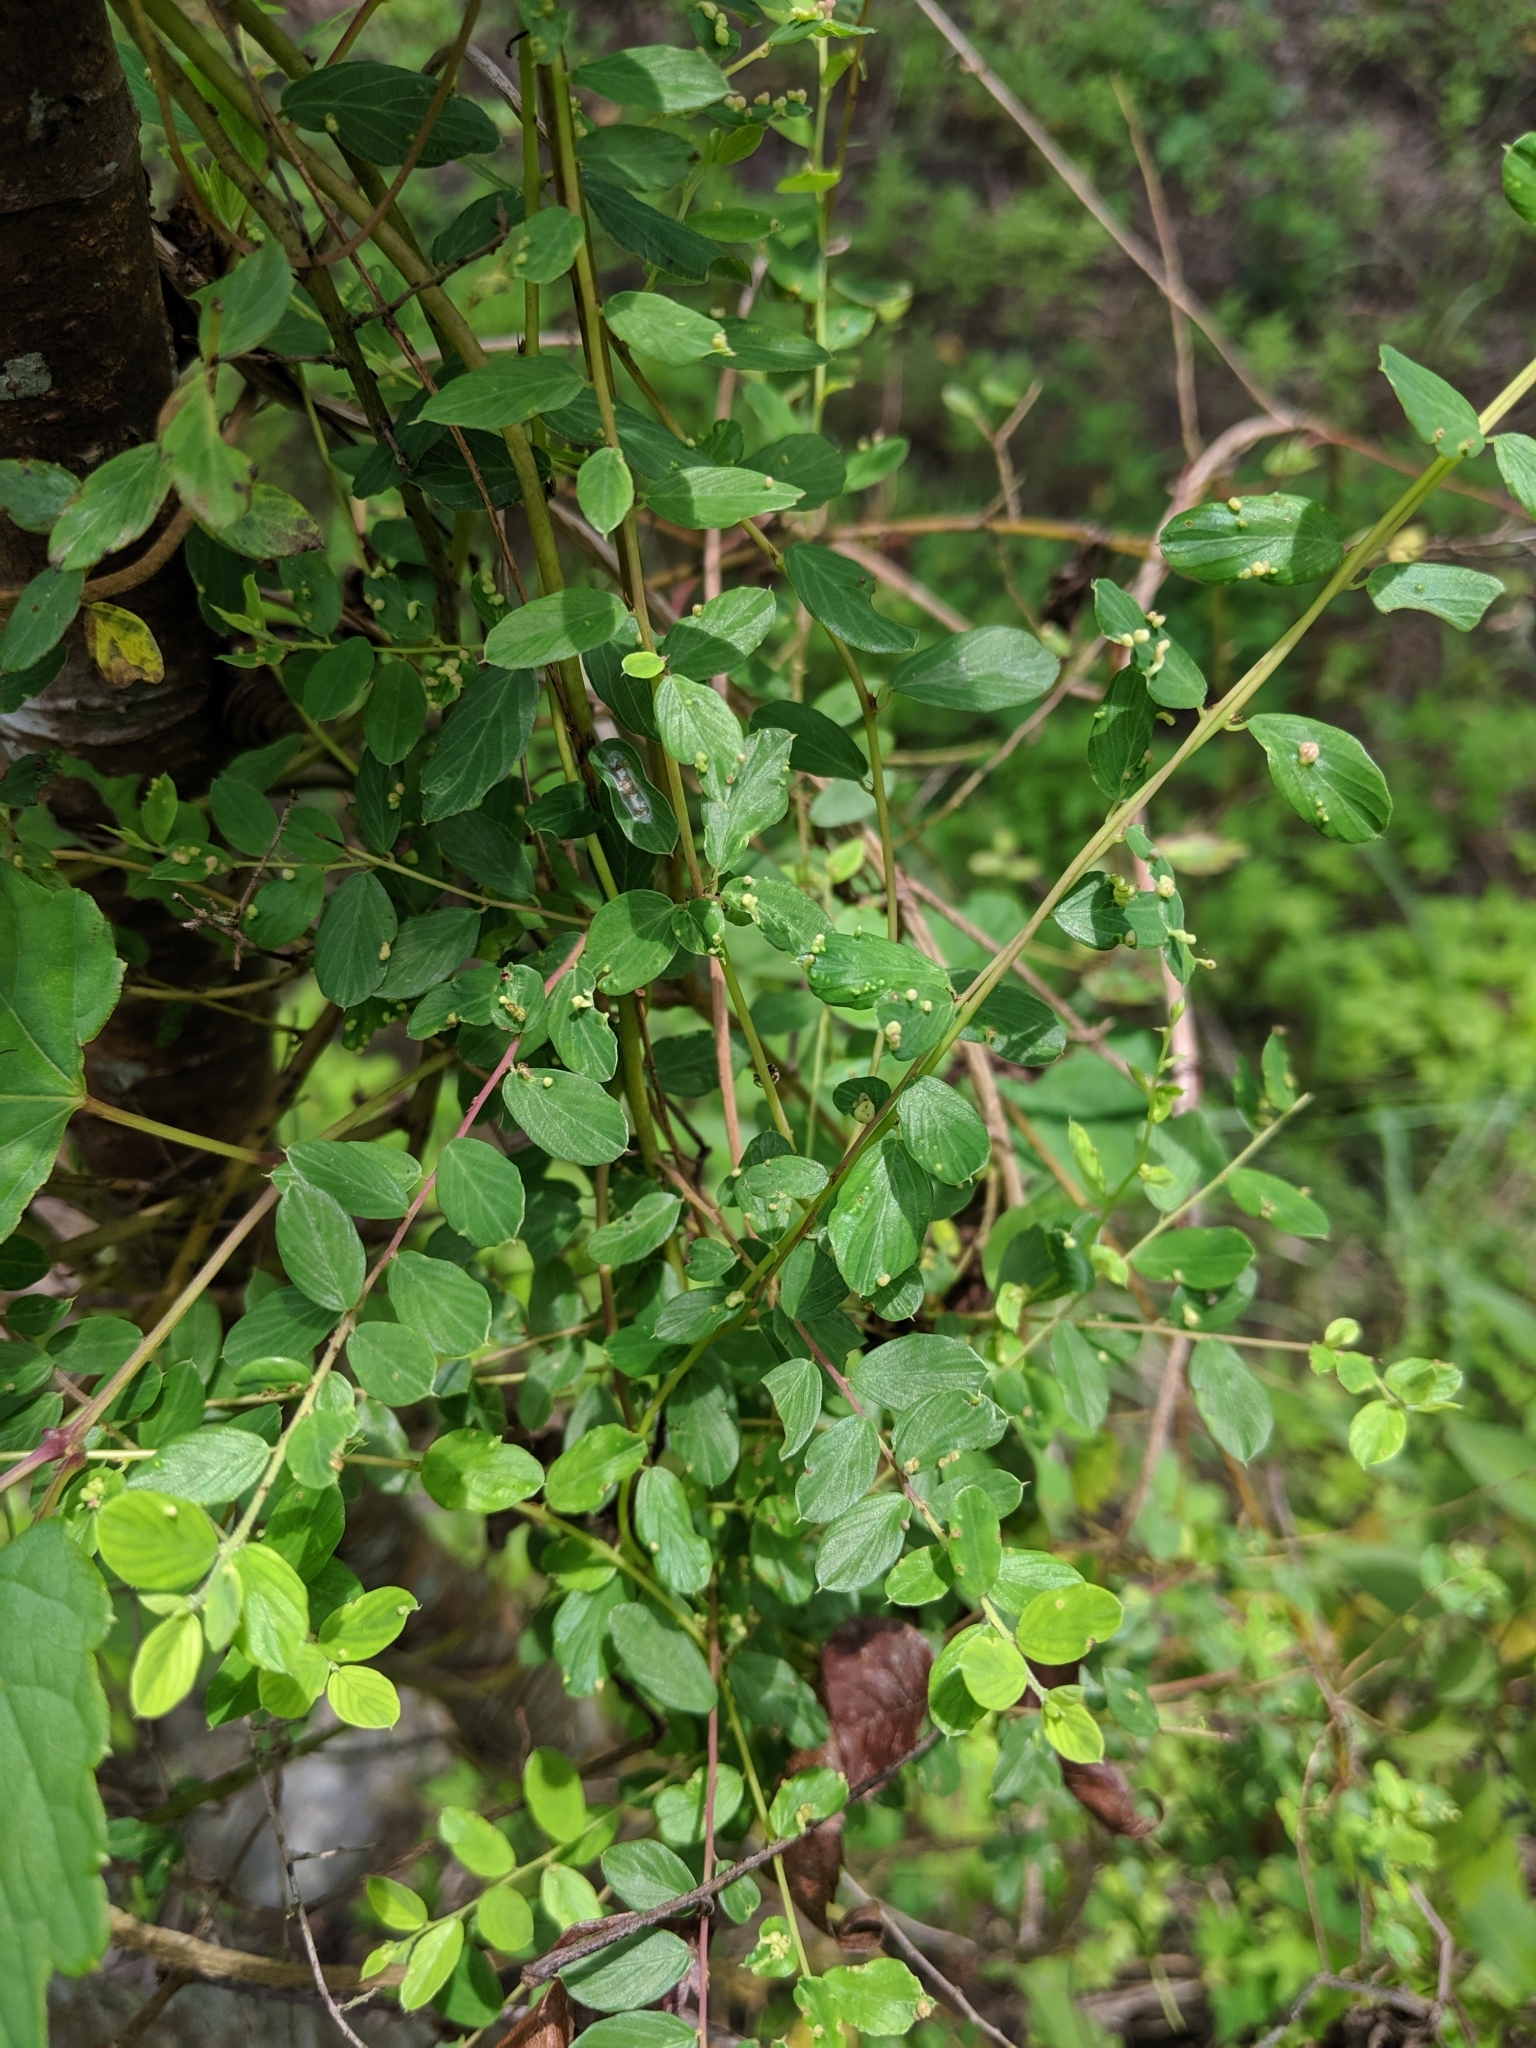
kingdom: Plantae
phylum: Tracheophyta
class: Magnoliopsida
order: Rosales
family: Rhamnaceae
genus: Berchemia
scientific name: Berchemia lineata
